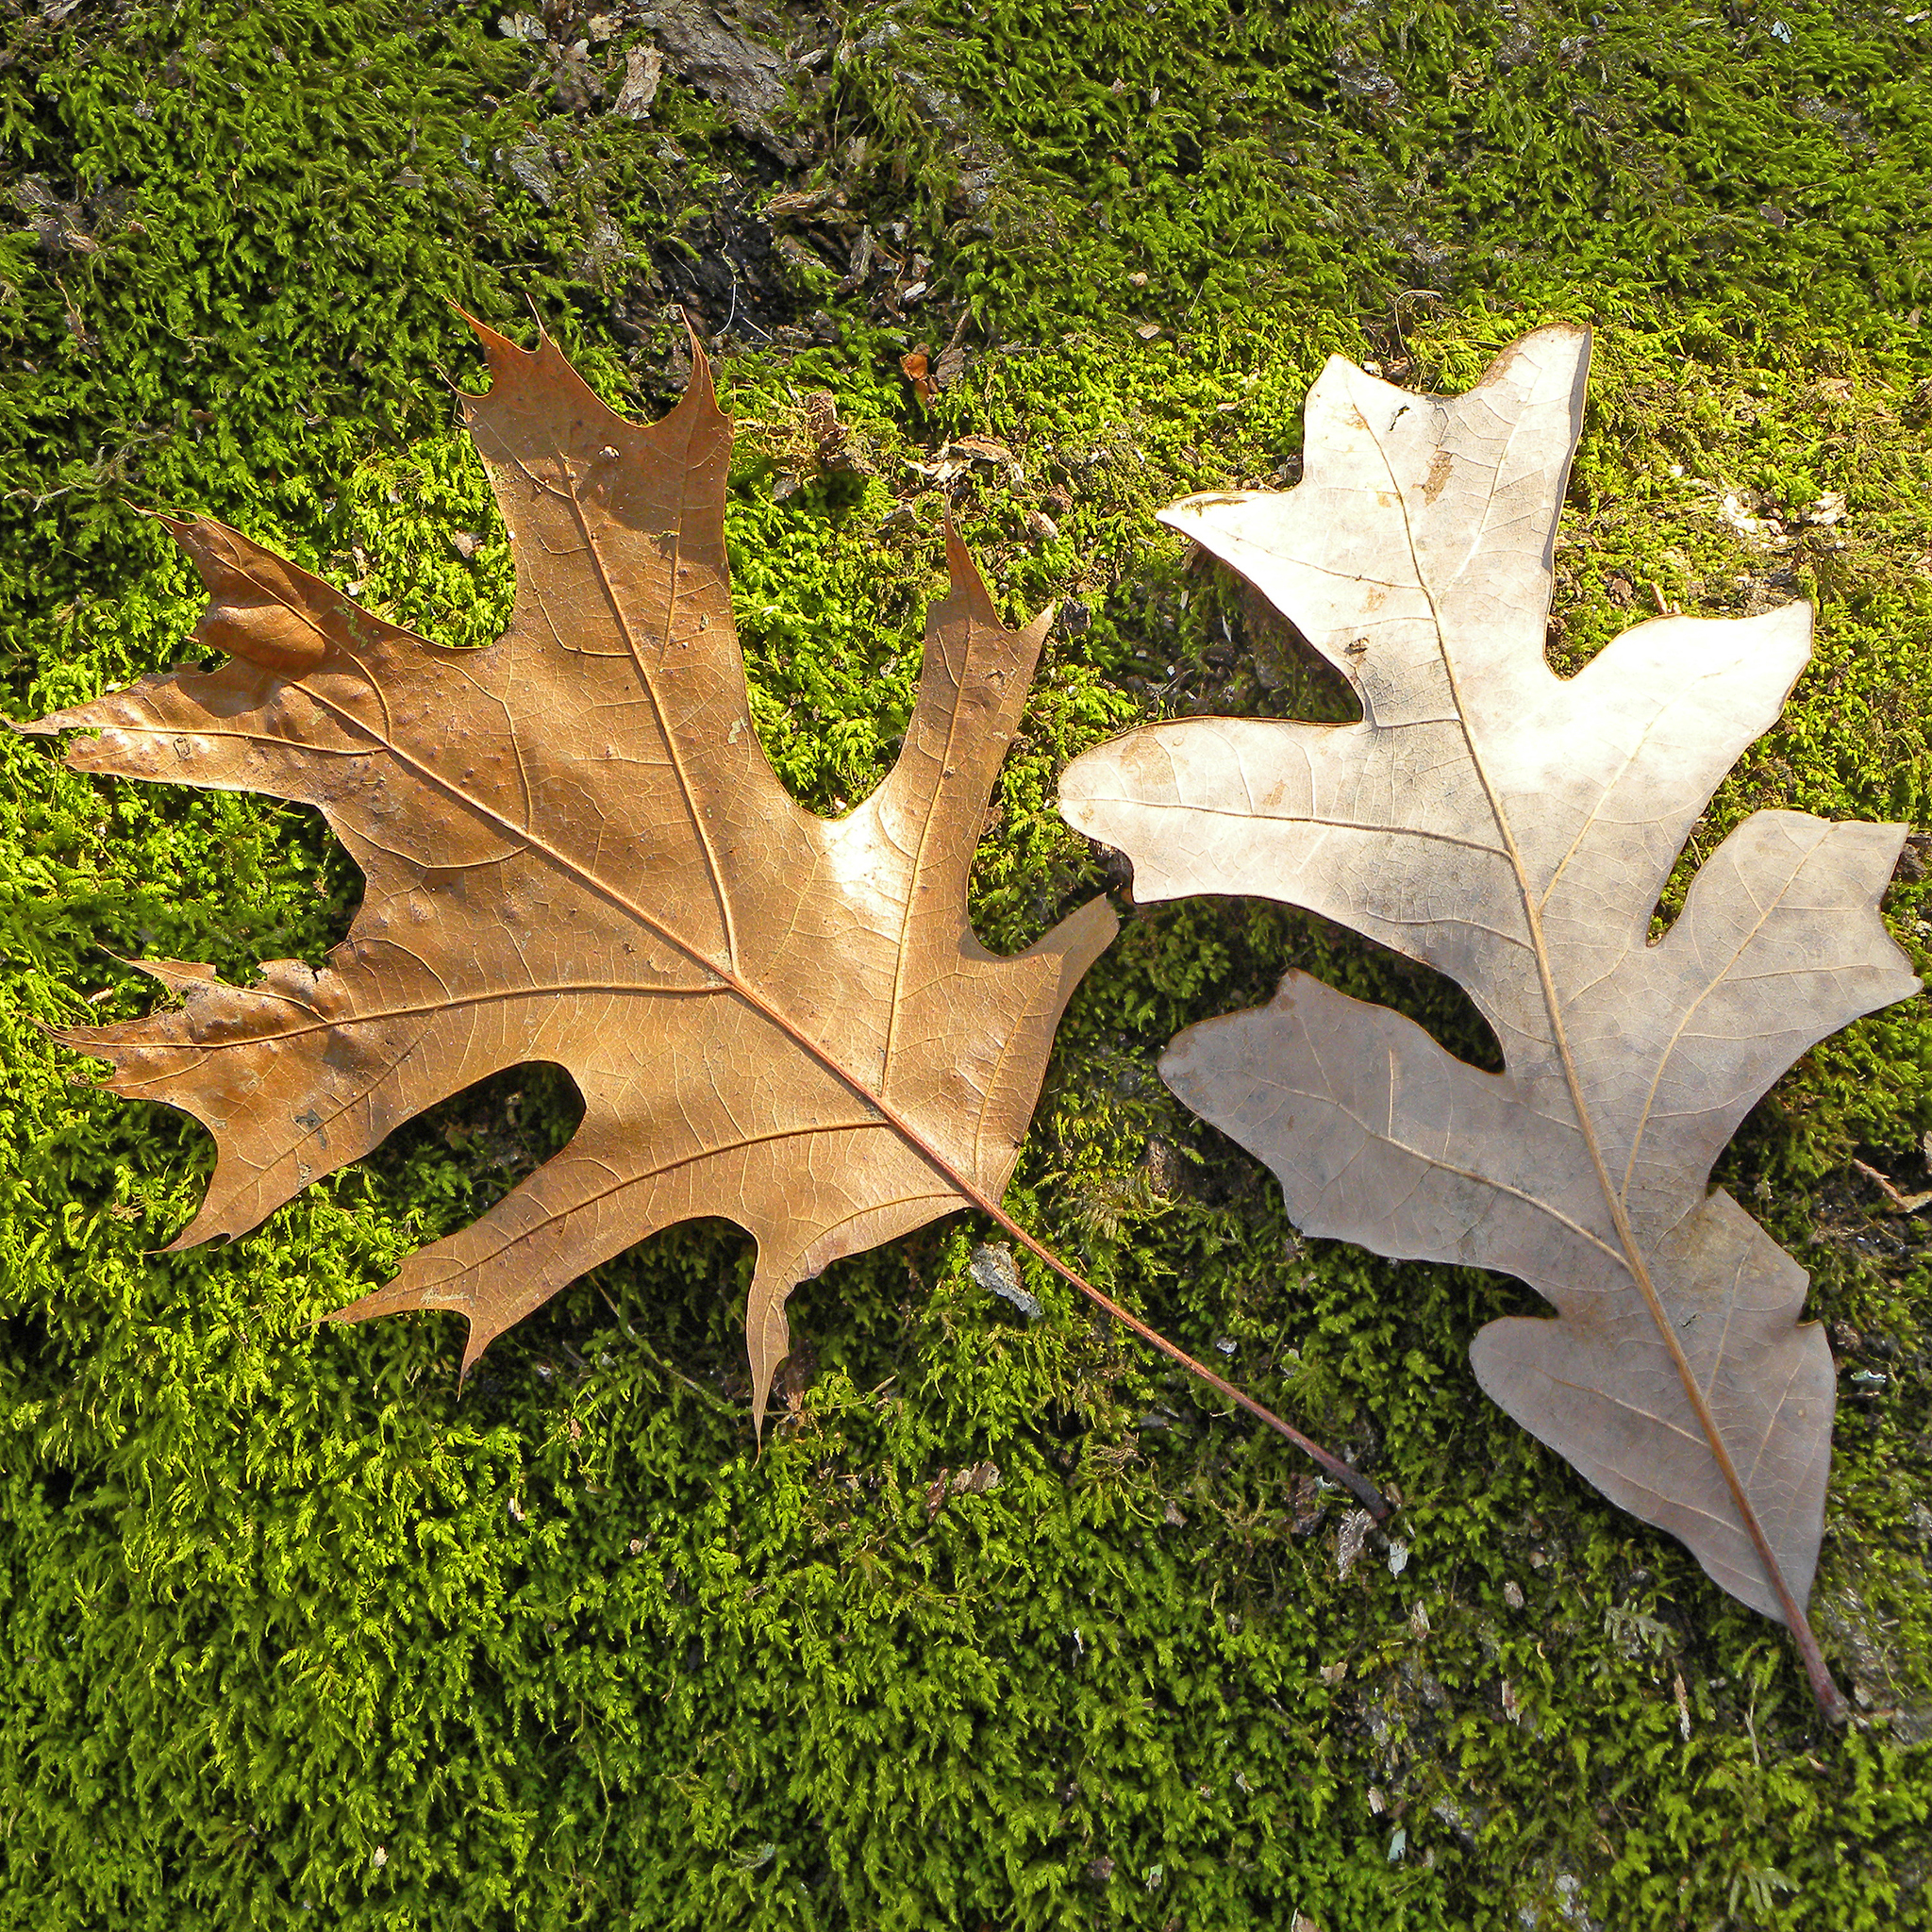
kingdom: Plantae
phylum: Tracheophyta
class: Magnoliopsida
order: Fagales
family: Fagaceae
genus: Quercus
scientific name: Quercus
